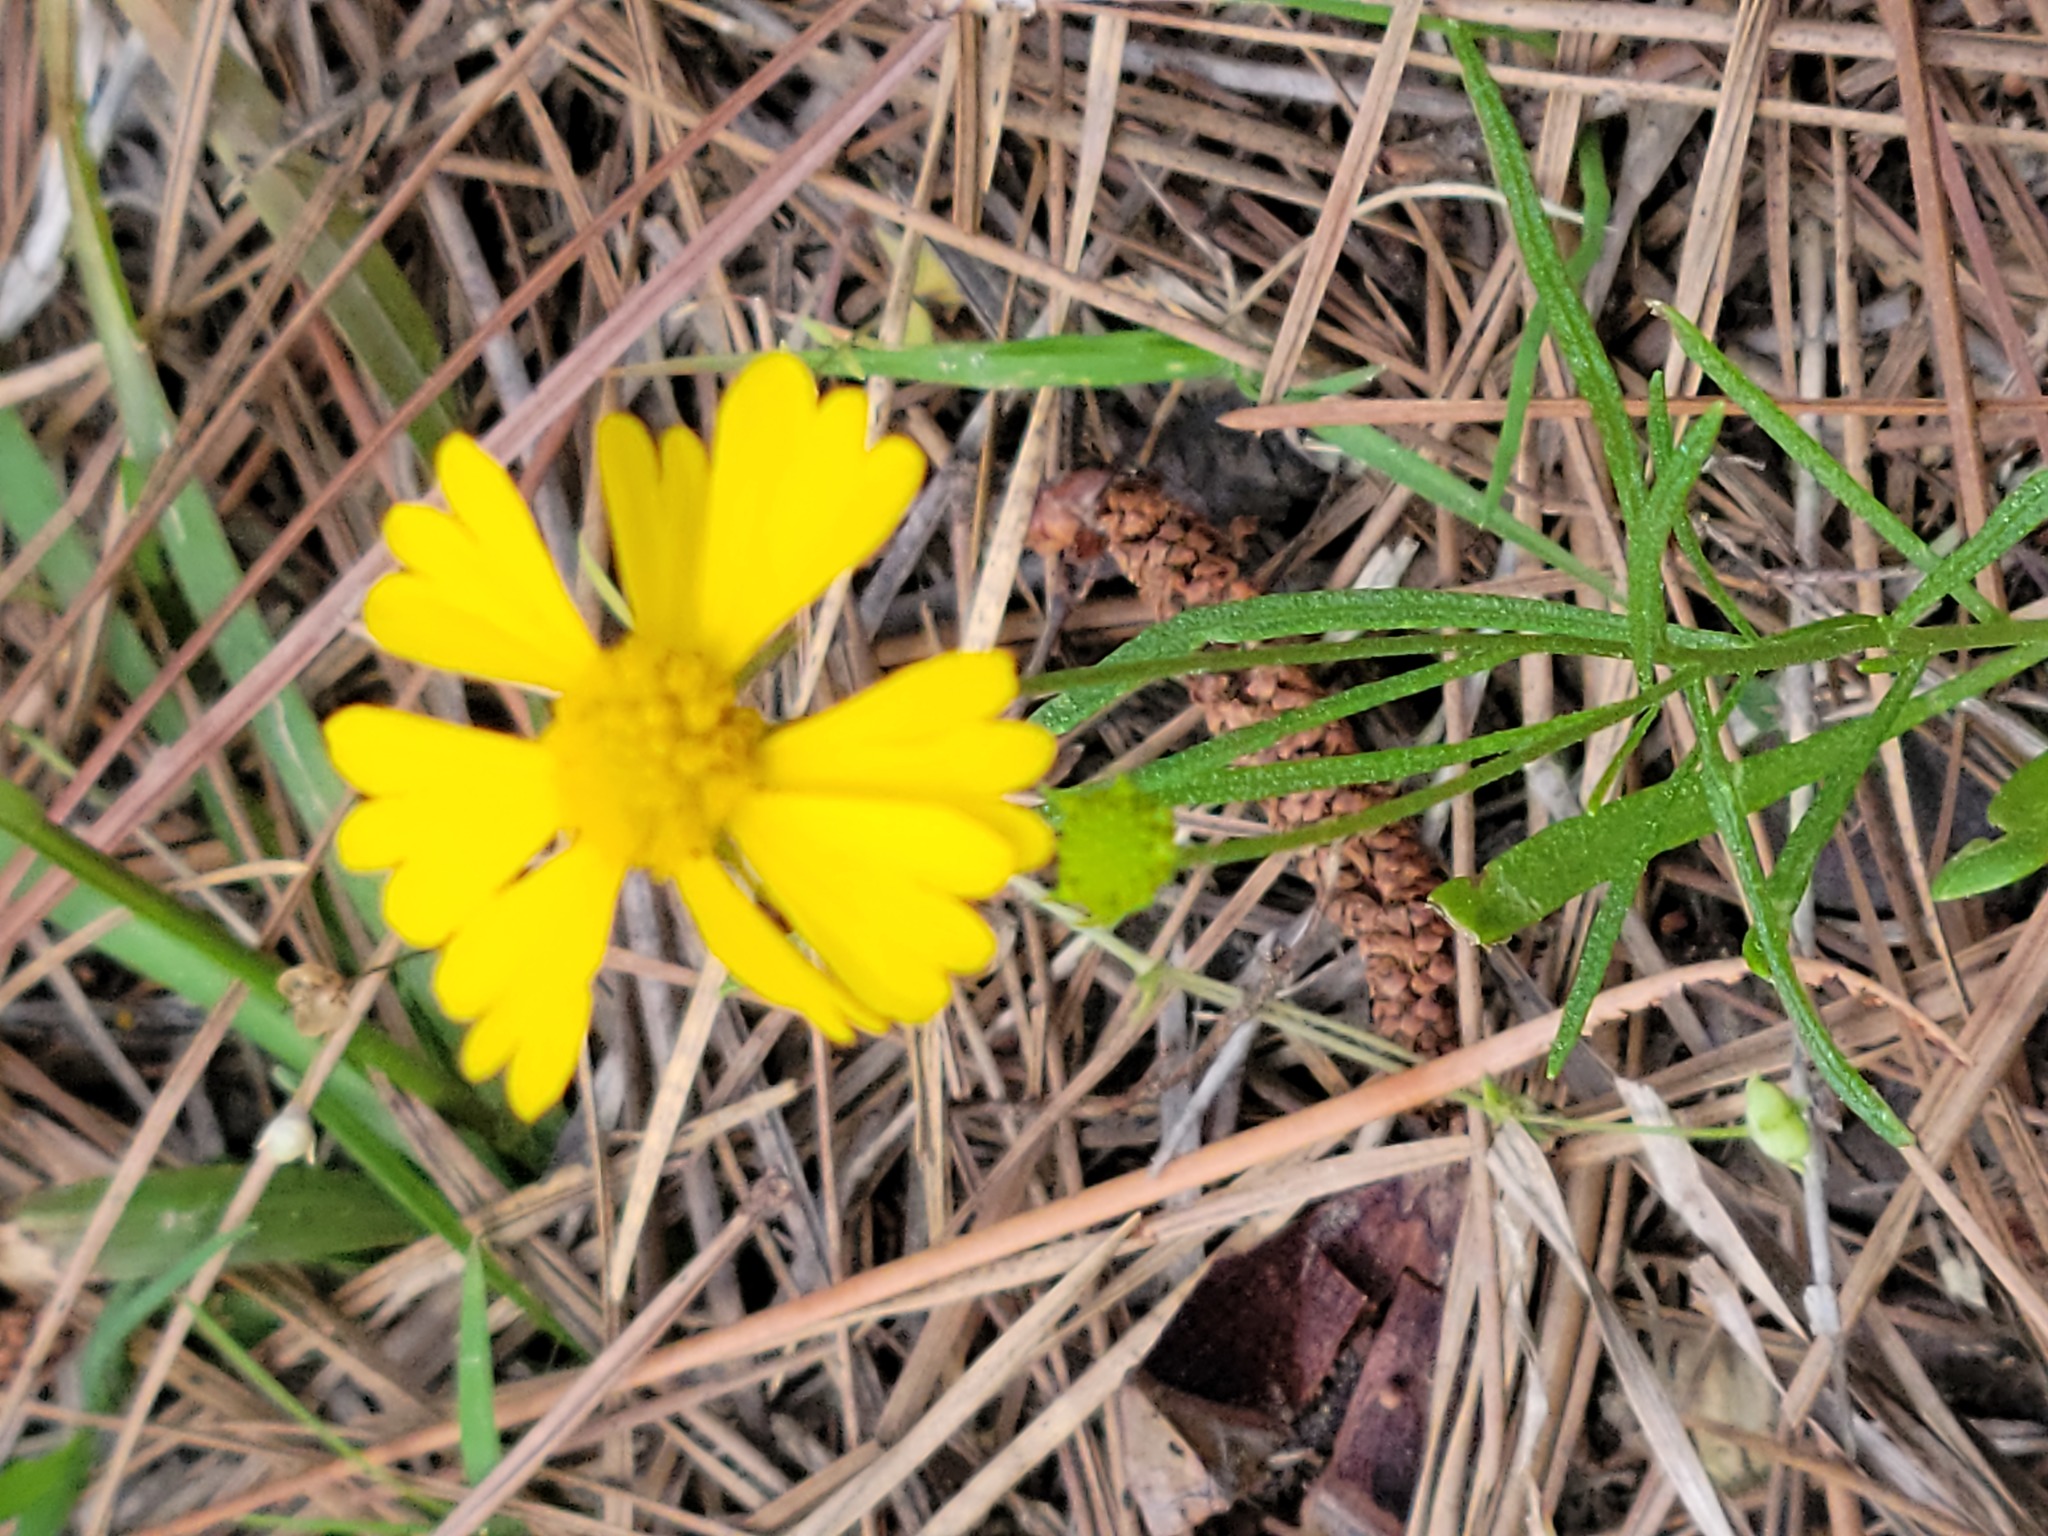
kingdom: Plantae
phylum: Tracheophyta
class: Magnoliopsida
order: Asterales
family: Asteraceae
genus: Helenium
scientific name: Helenium amarum
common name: Bitter sneezeweed
